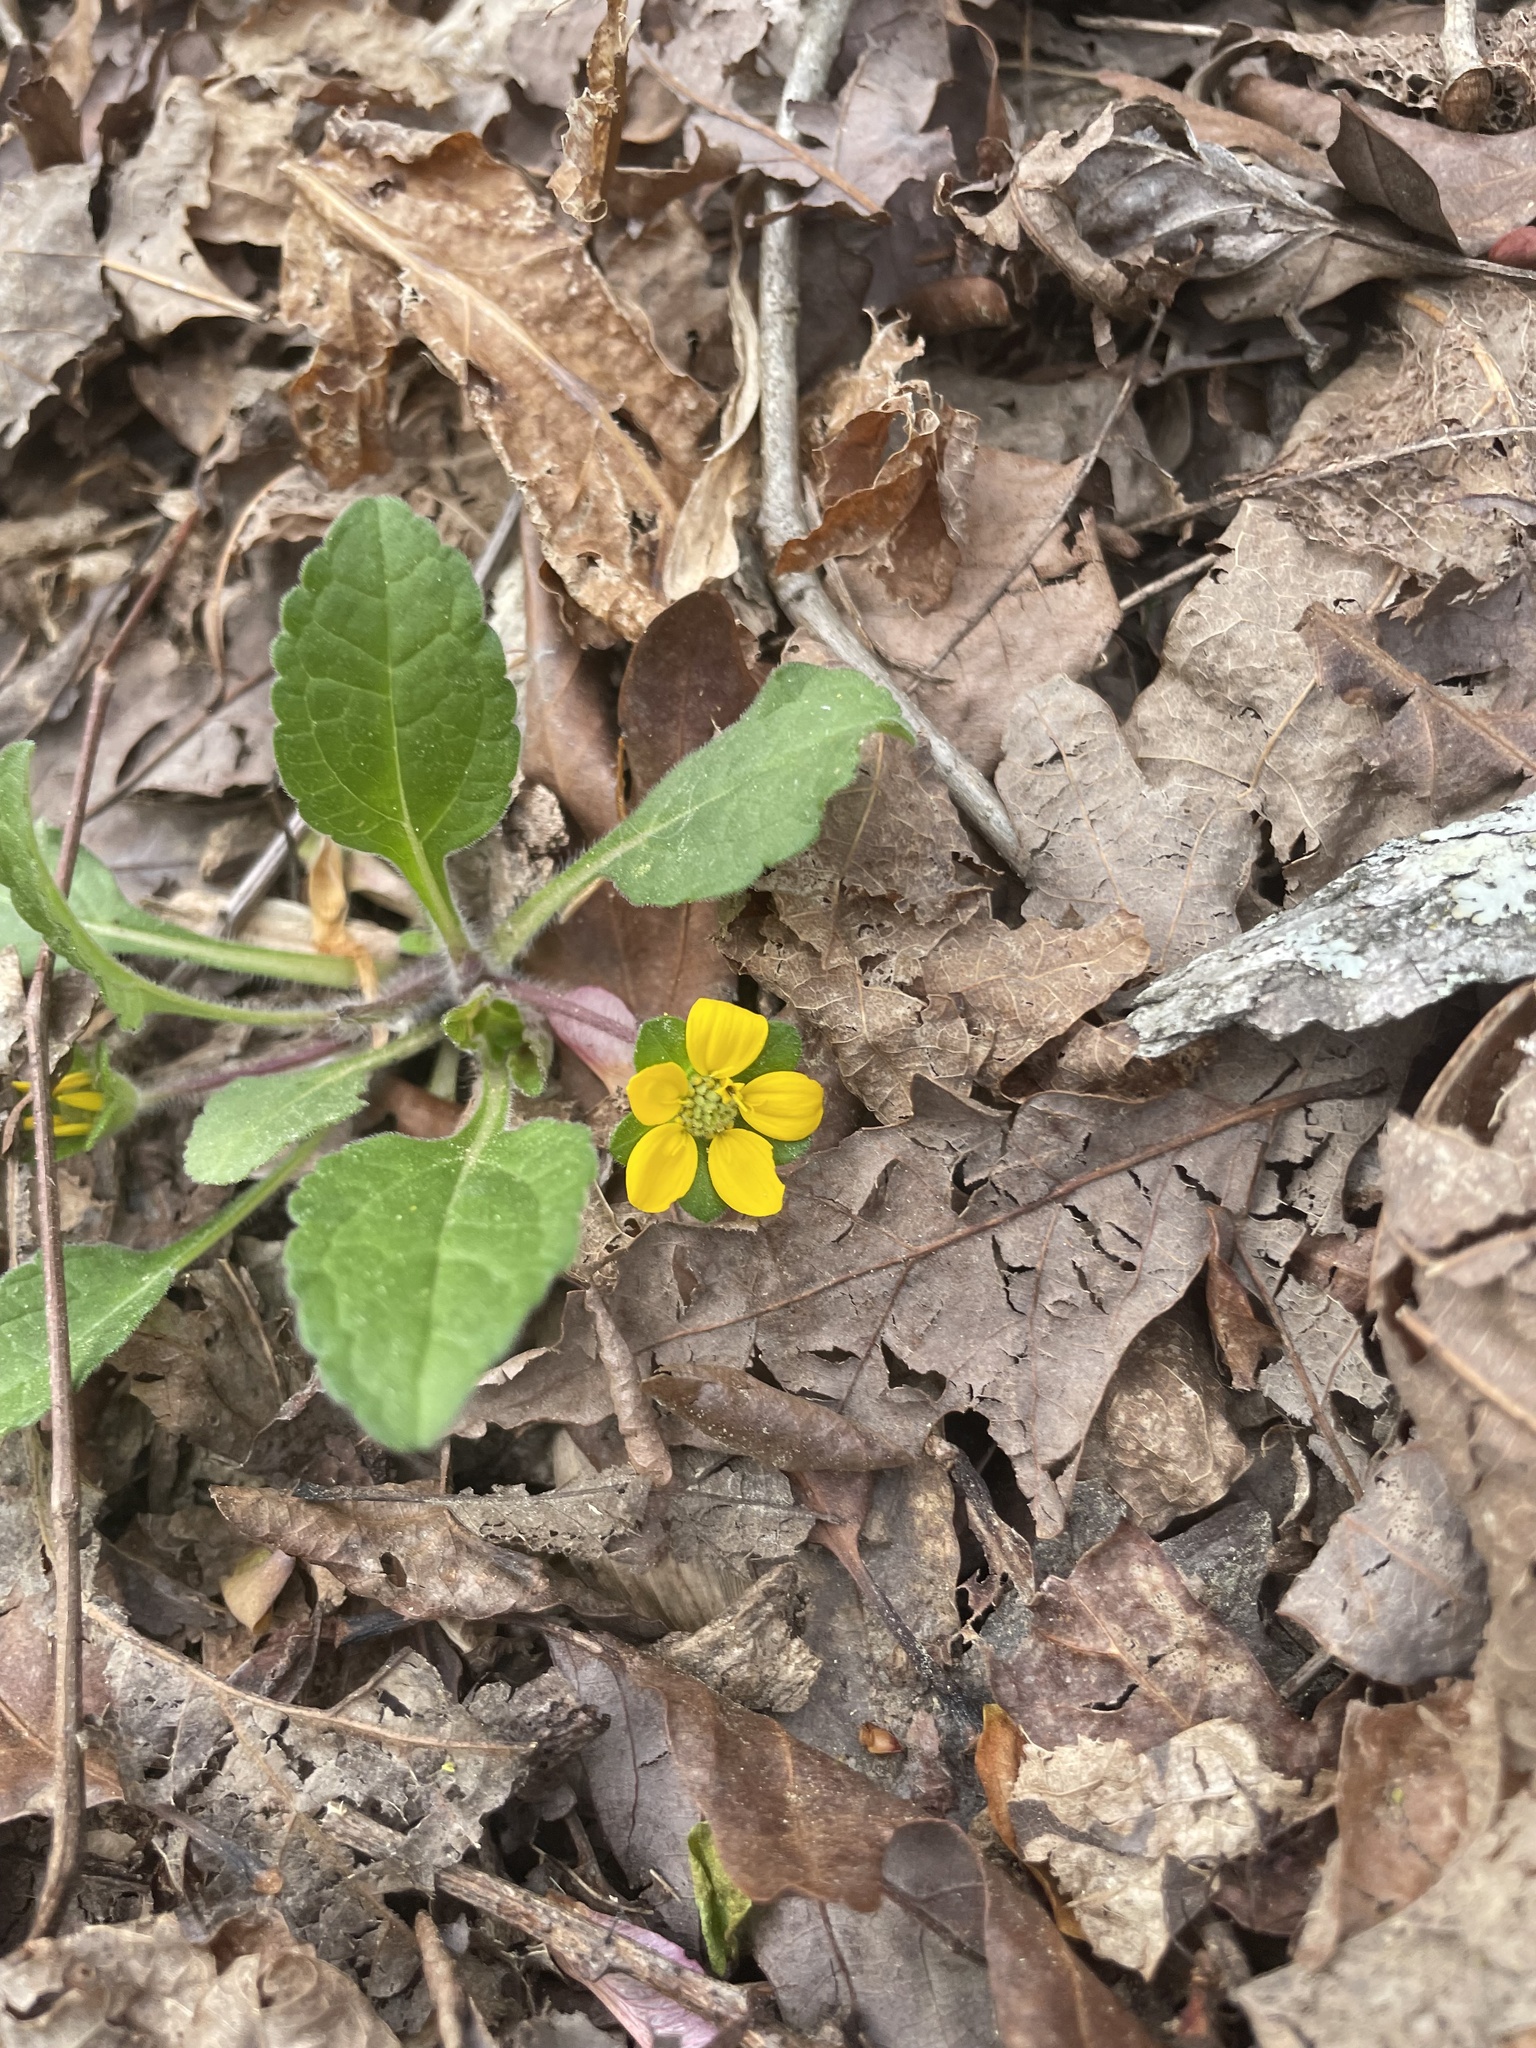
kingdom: Plantae
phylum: Tracheophyta
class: Magnoliopsida
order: Asterales
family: Asteraceae
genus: Chrysogonum
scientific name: Chrysogonum virginianum
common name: Golden-knee
